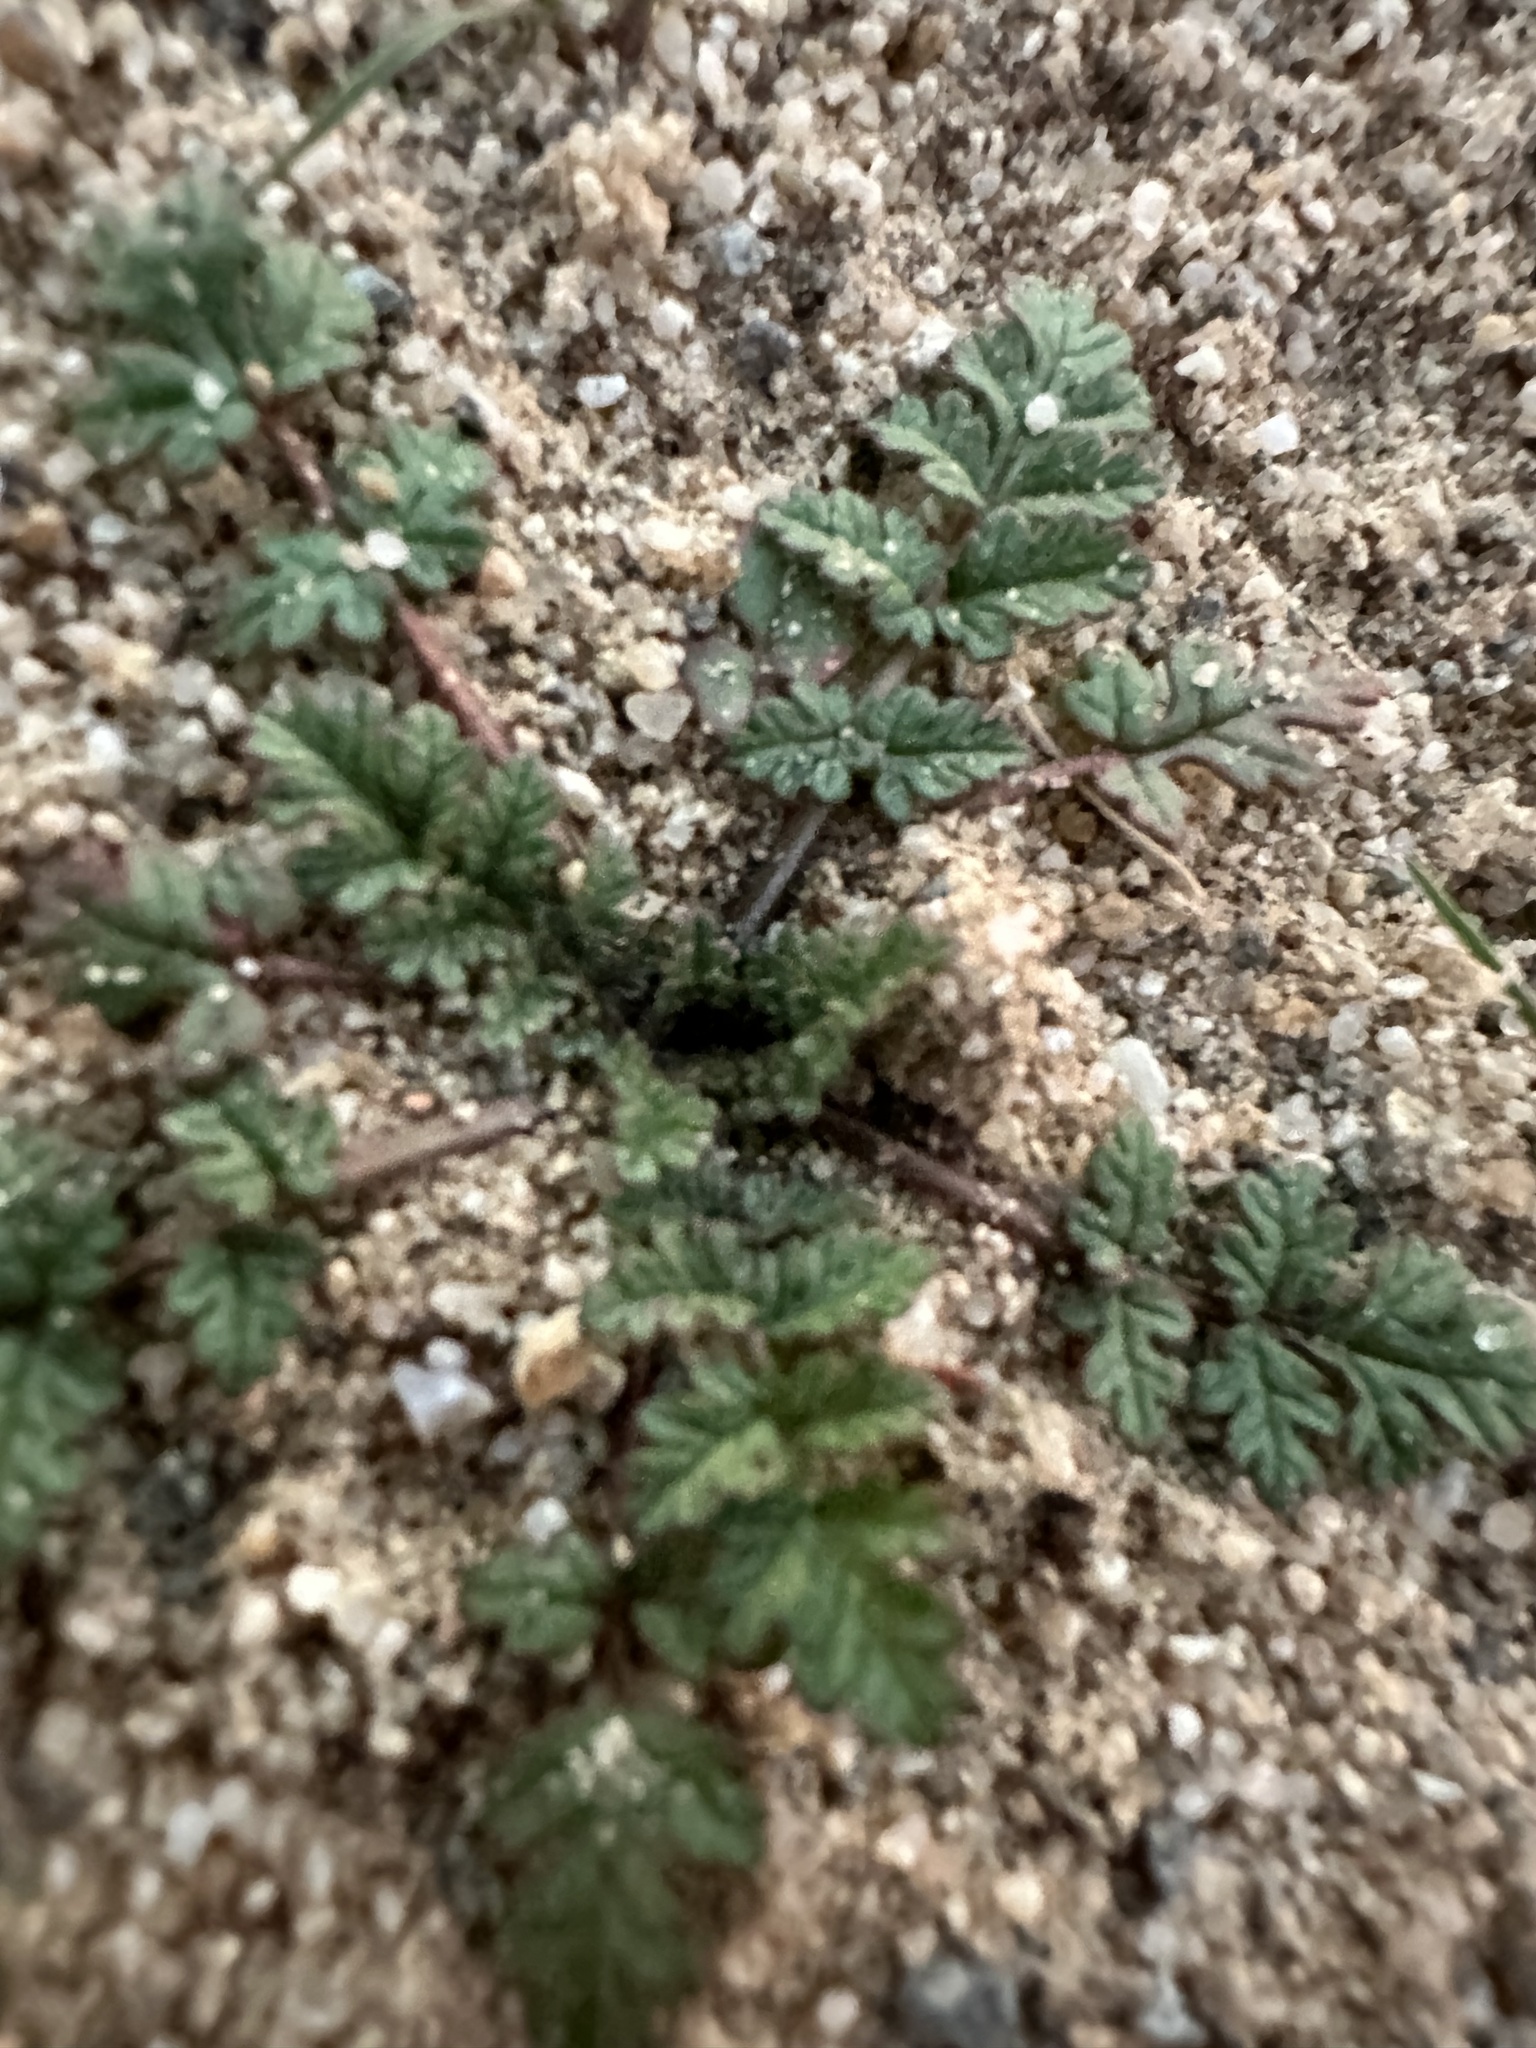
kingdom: Plantae
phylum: Tracheophyta
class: Magnoliopsida
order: Geraniales
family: Geraniaceae
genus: Erodium
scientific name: Erodium cicutarium
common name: Common stork's-bill
